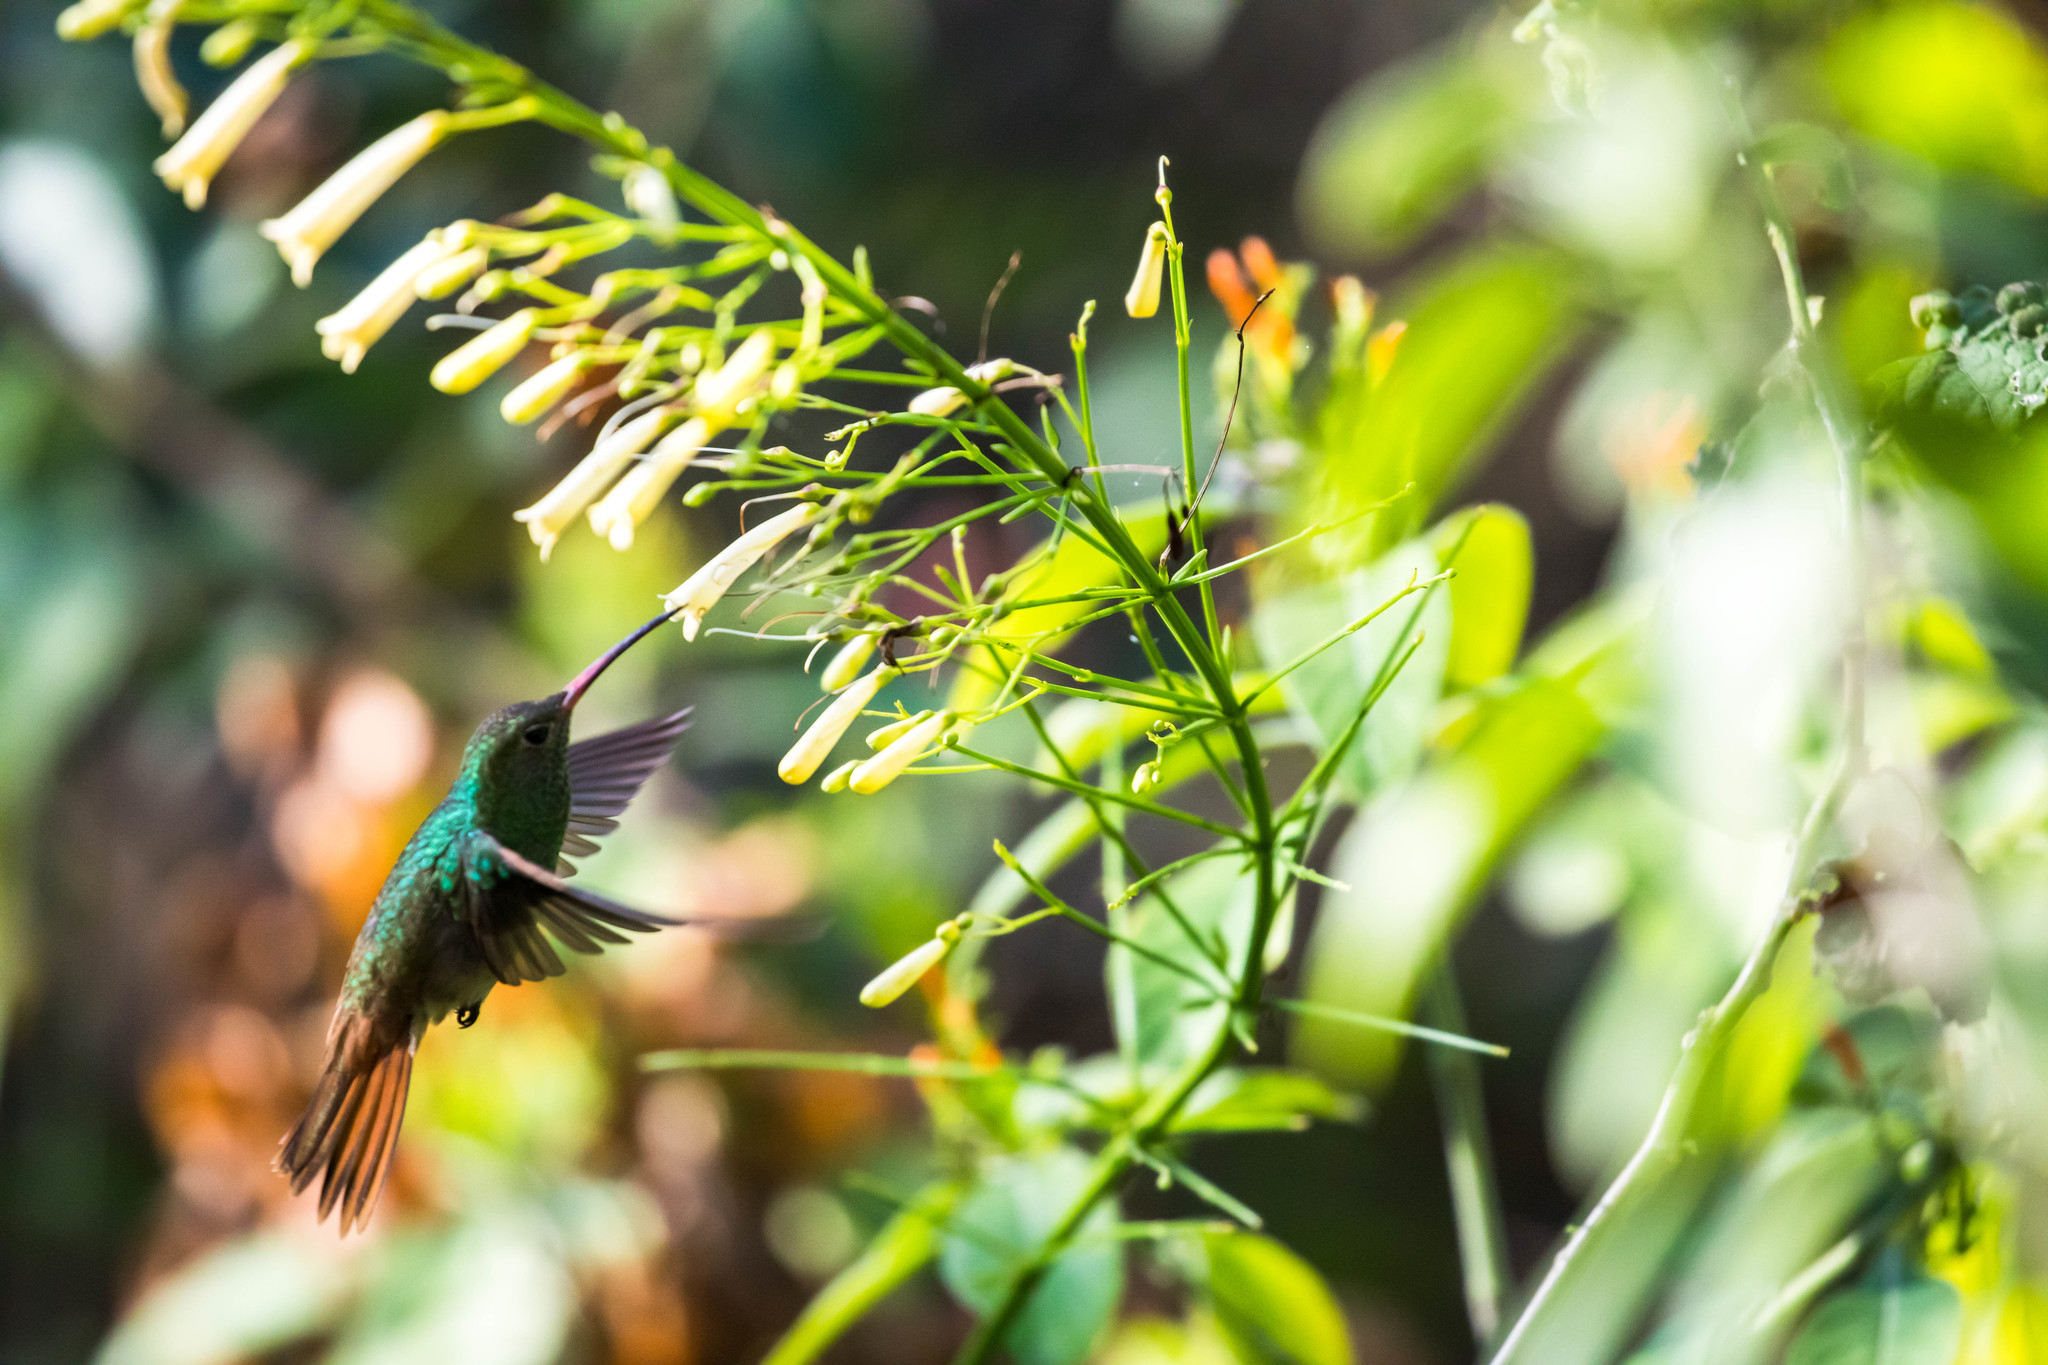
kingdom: Animalia
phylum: Chordata
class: Aves
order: Apodiformes
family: Trochilidae
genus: Amazilia
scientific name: Amazilia yucatanensis
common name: Buff-bellied hummingbird
